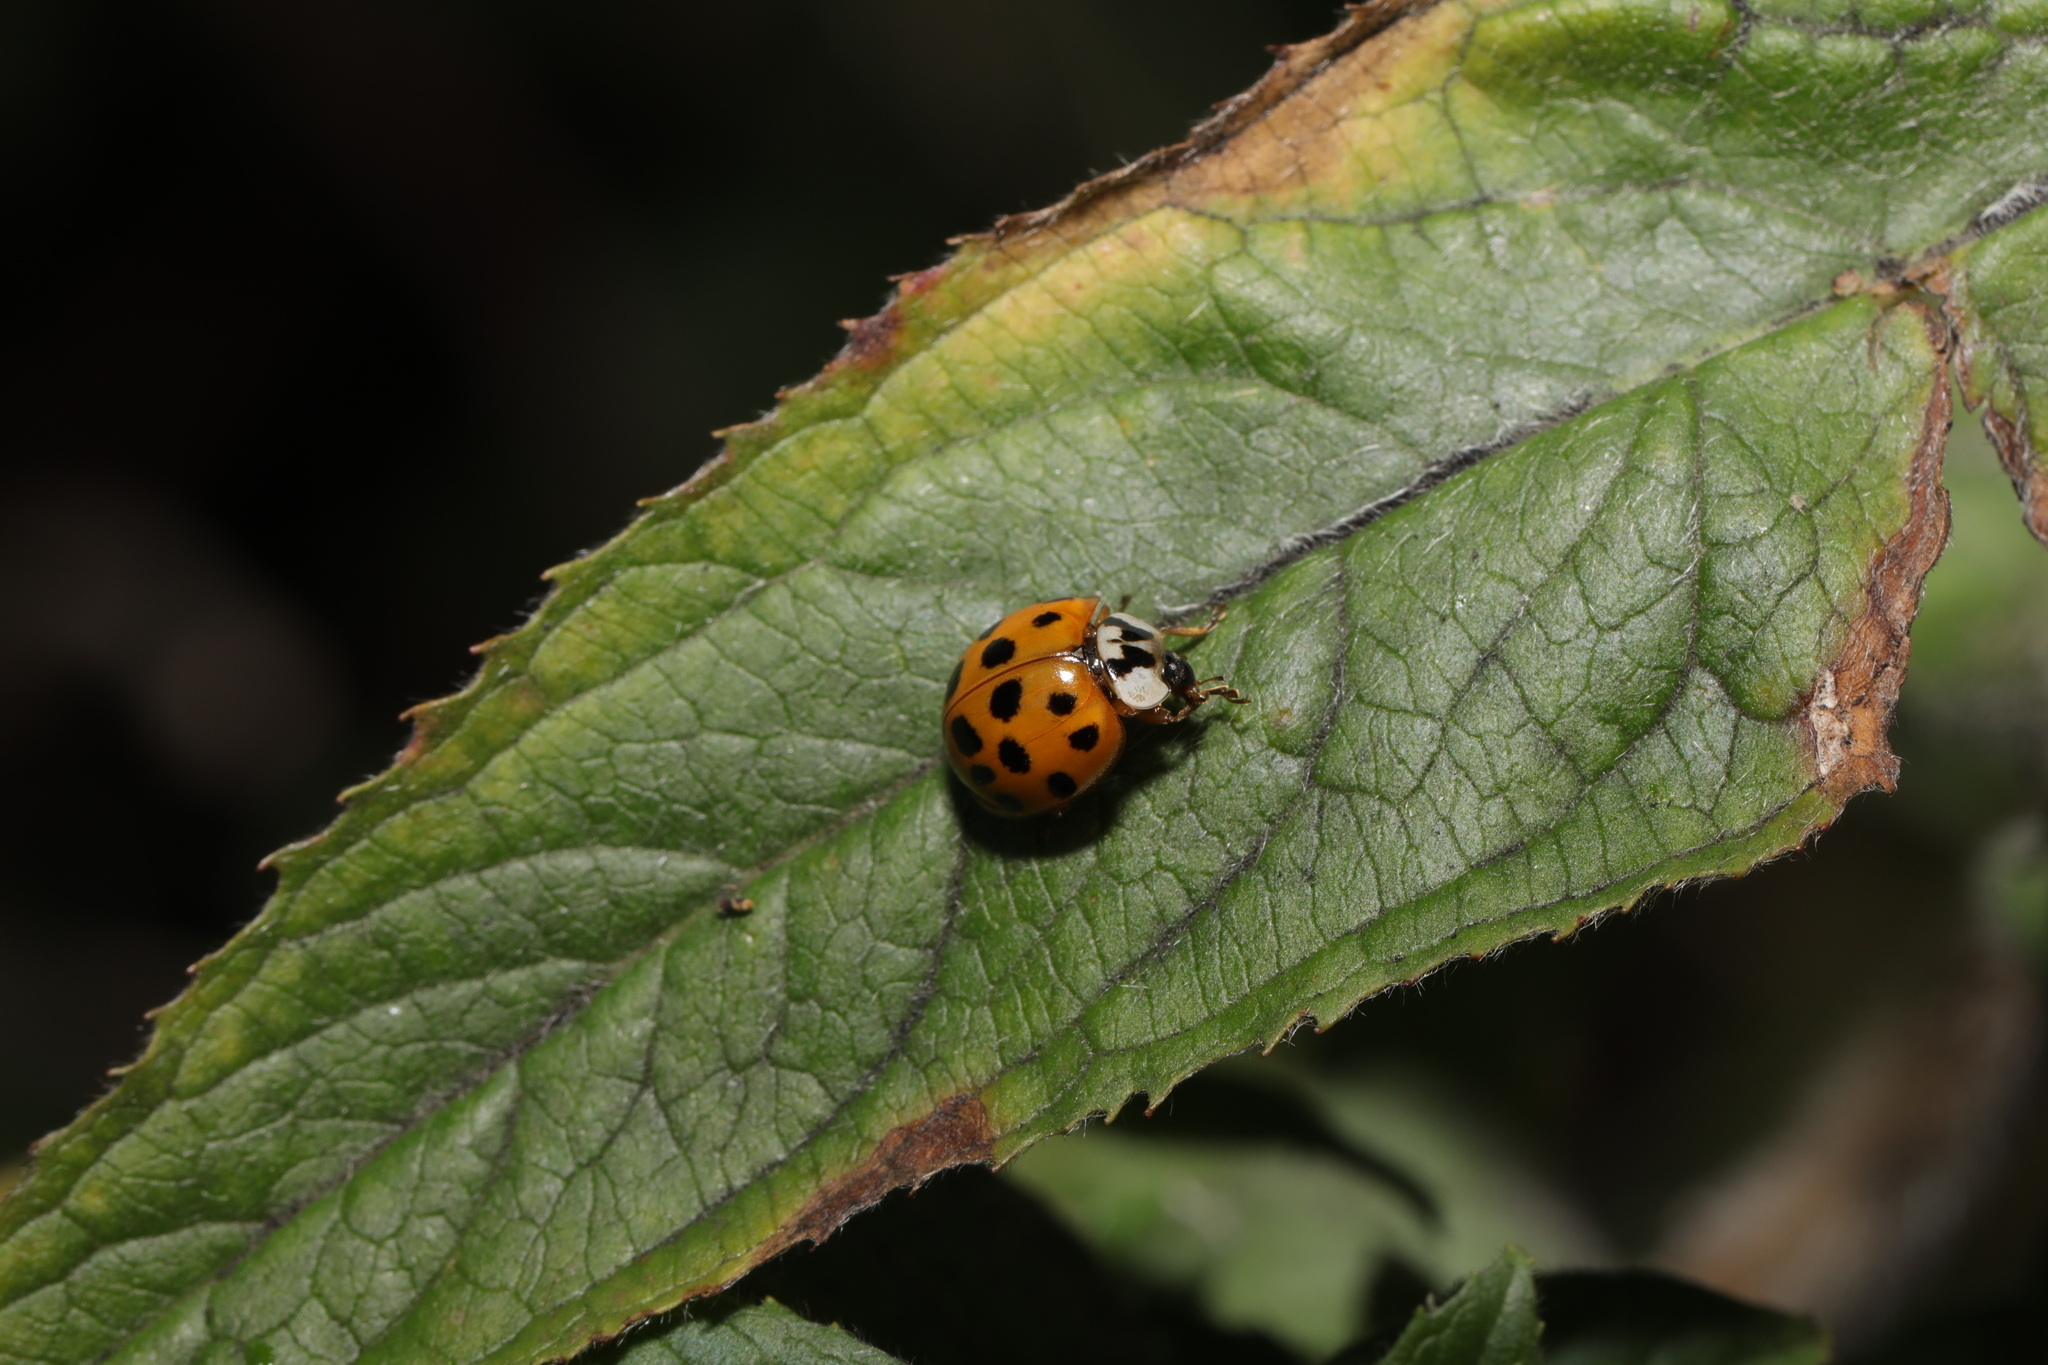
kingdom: Animalia
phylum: Arthropoda
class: Insecta
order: Coleoptera
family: Coccinellidae
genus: Harmonia
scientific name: Harmonia axyridis
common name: Harlequin ladybird
